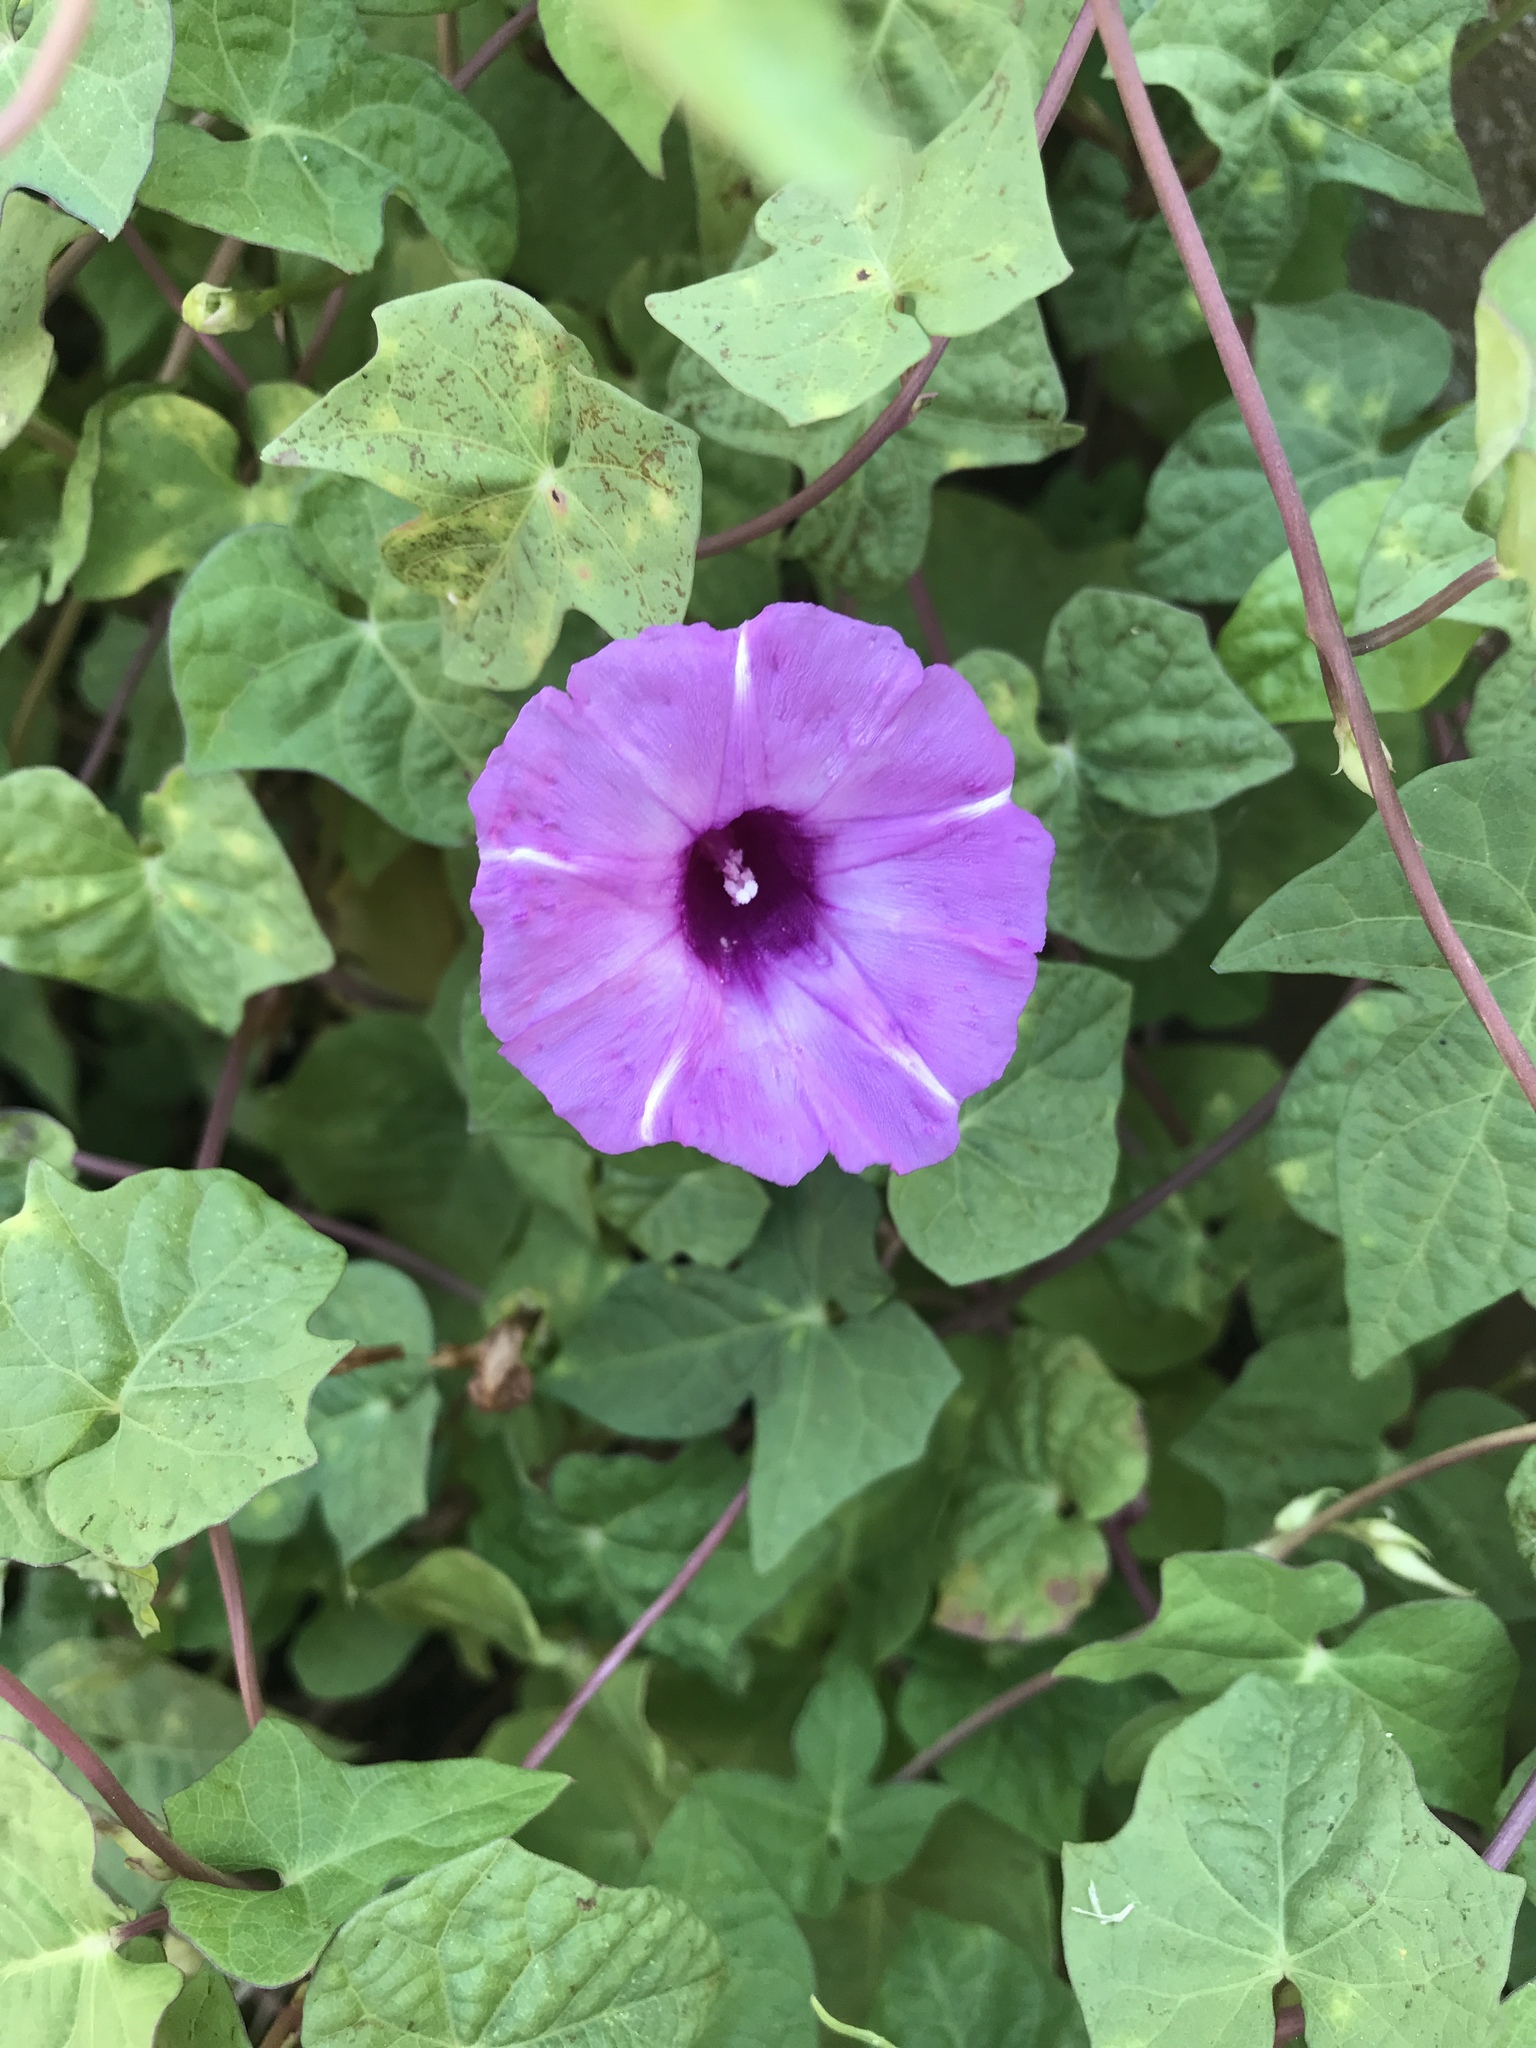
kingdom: Plantae
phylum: Tracheophyta
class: Magnoliopsida
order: Solanales
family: Convolvulaceae
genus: Ipomoea
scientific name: Ipomoea cordatotriloba
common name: Cotton morning glory
